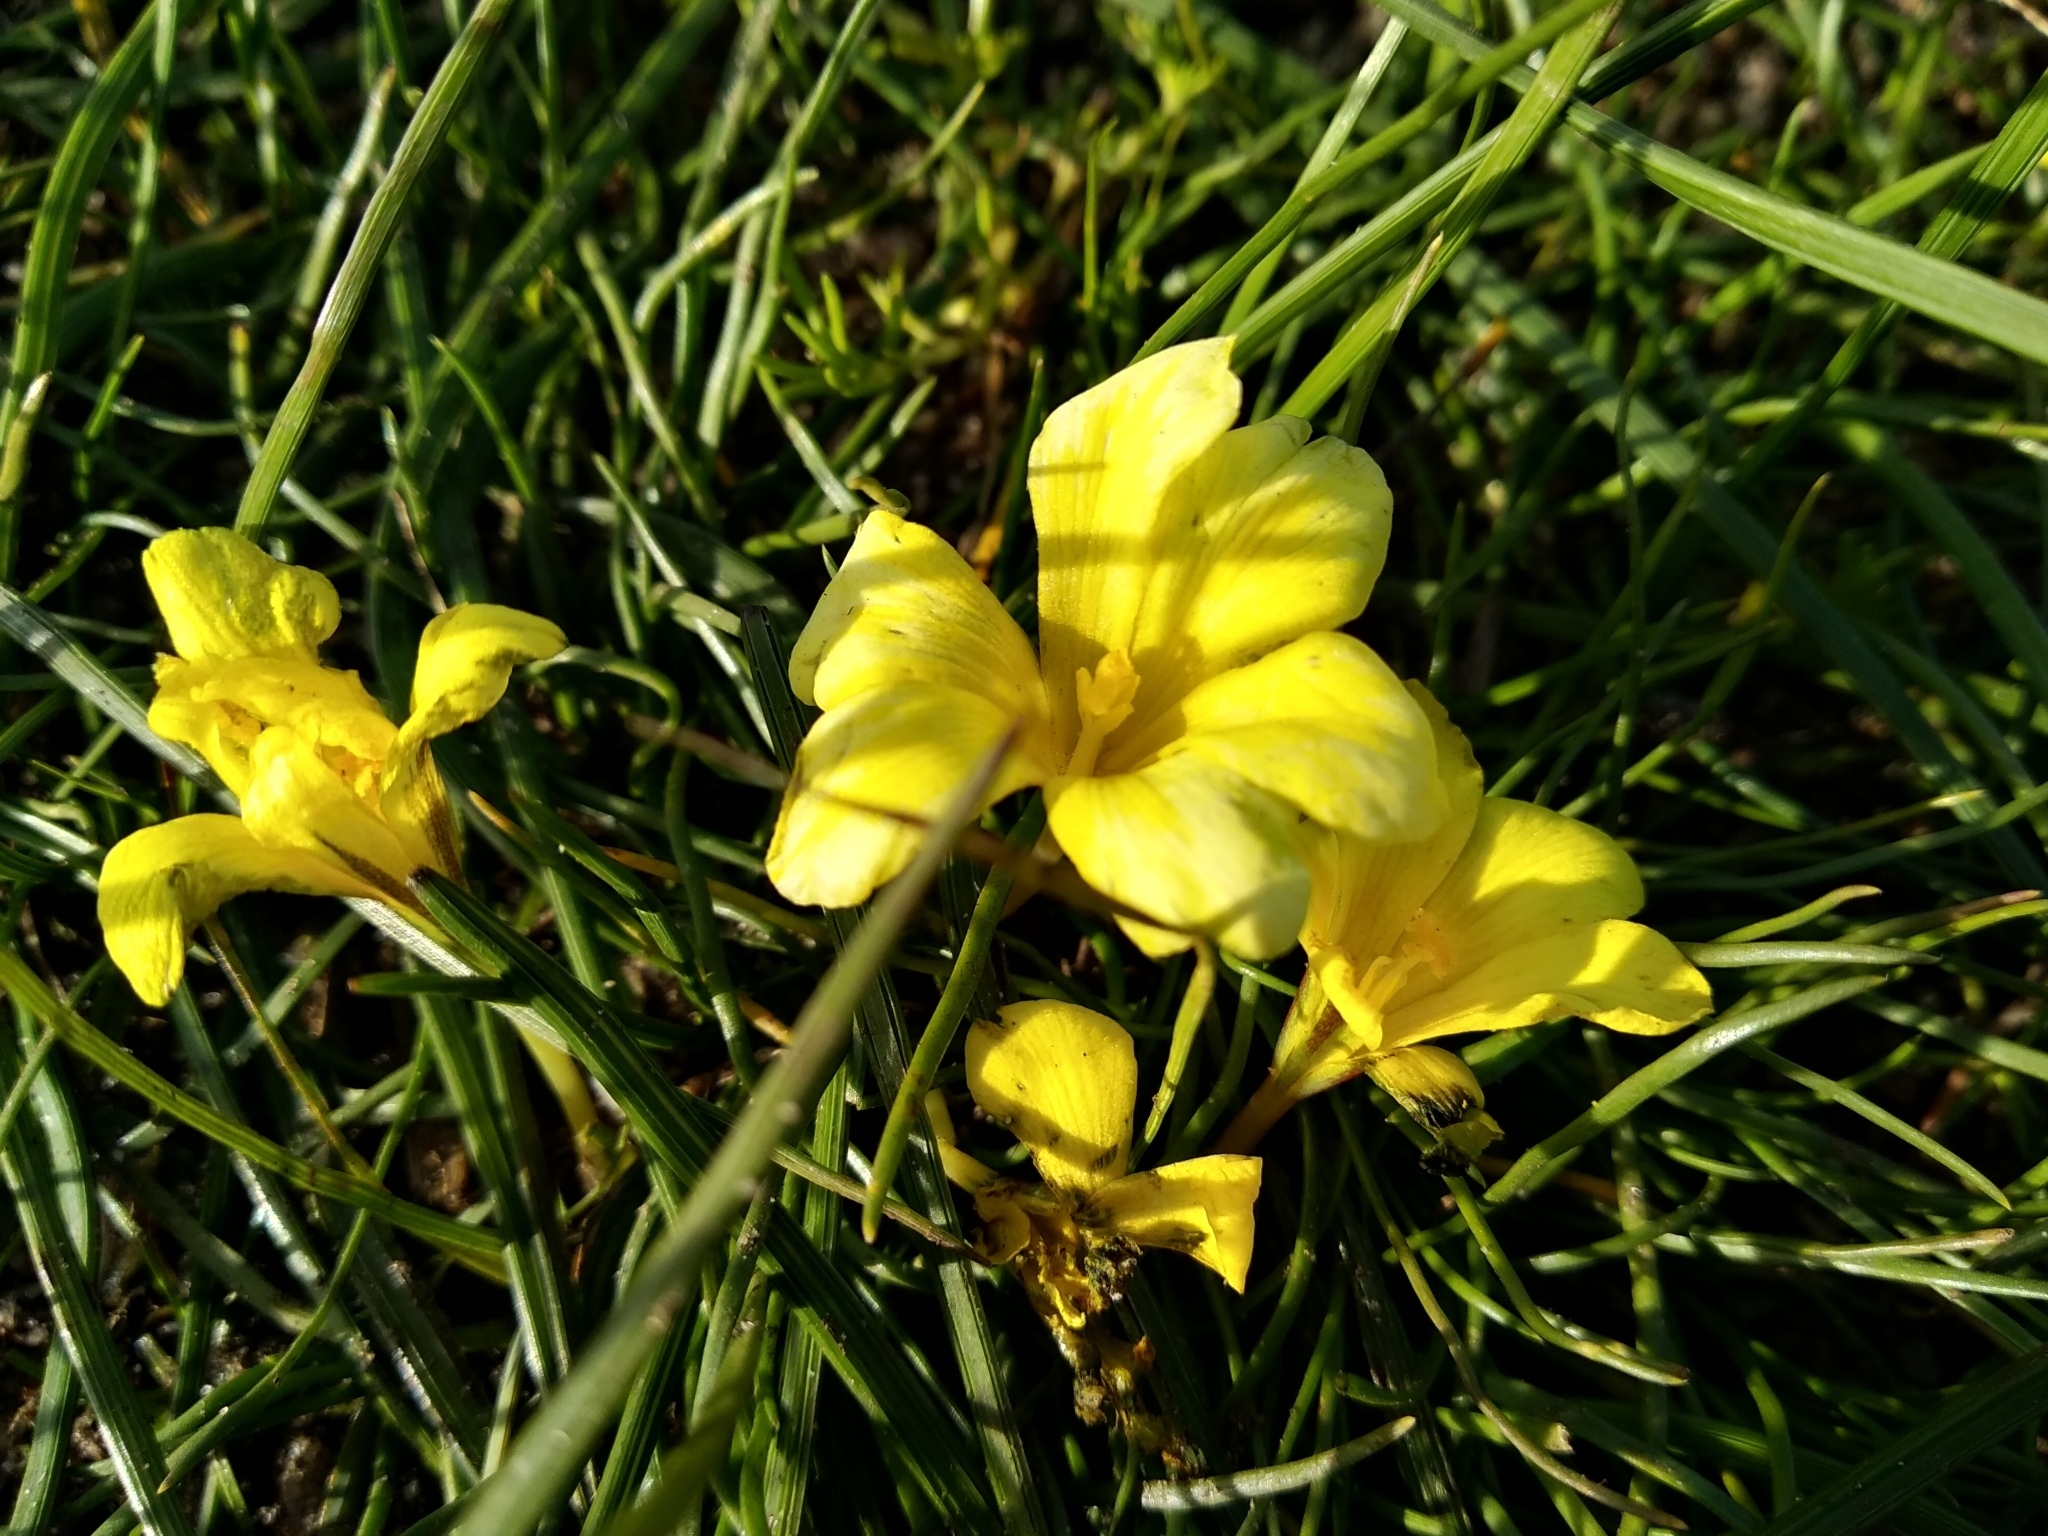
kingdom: Plantae
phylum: Tracheophyta
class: Liliopsida
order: Asparagales
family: Iridaceae
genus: Moraea
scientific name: Moraea fugacissima
